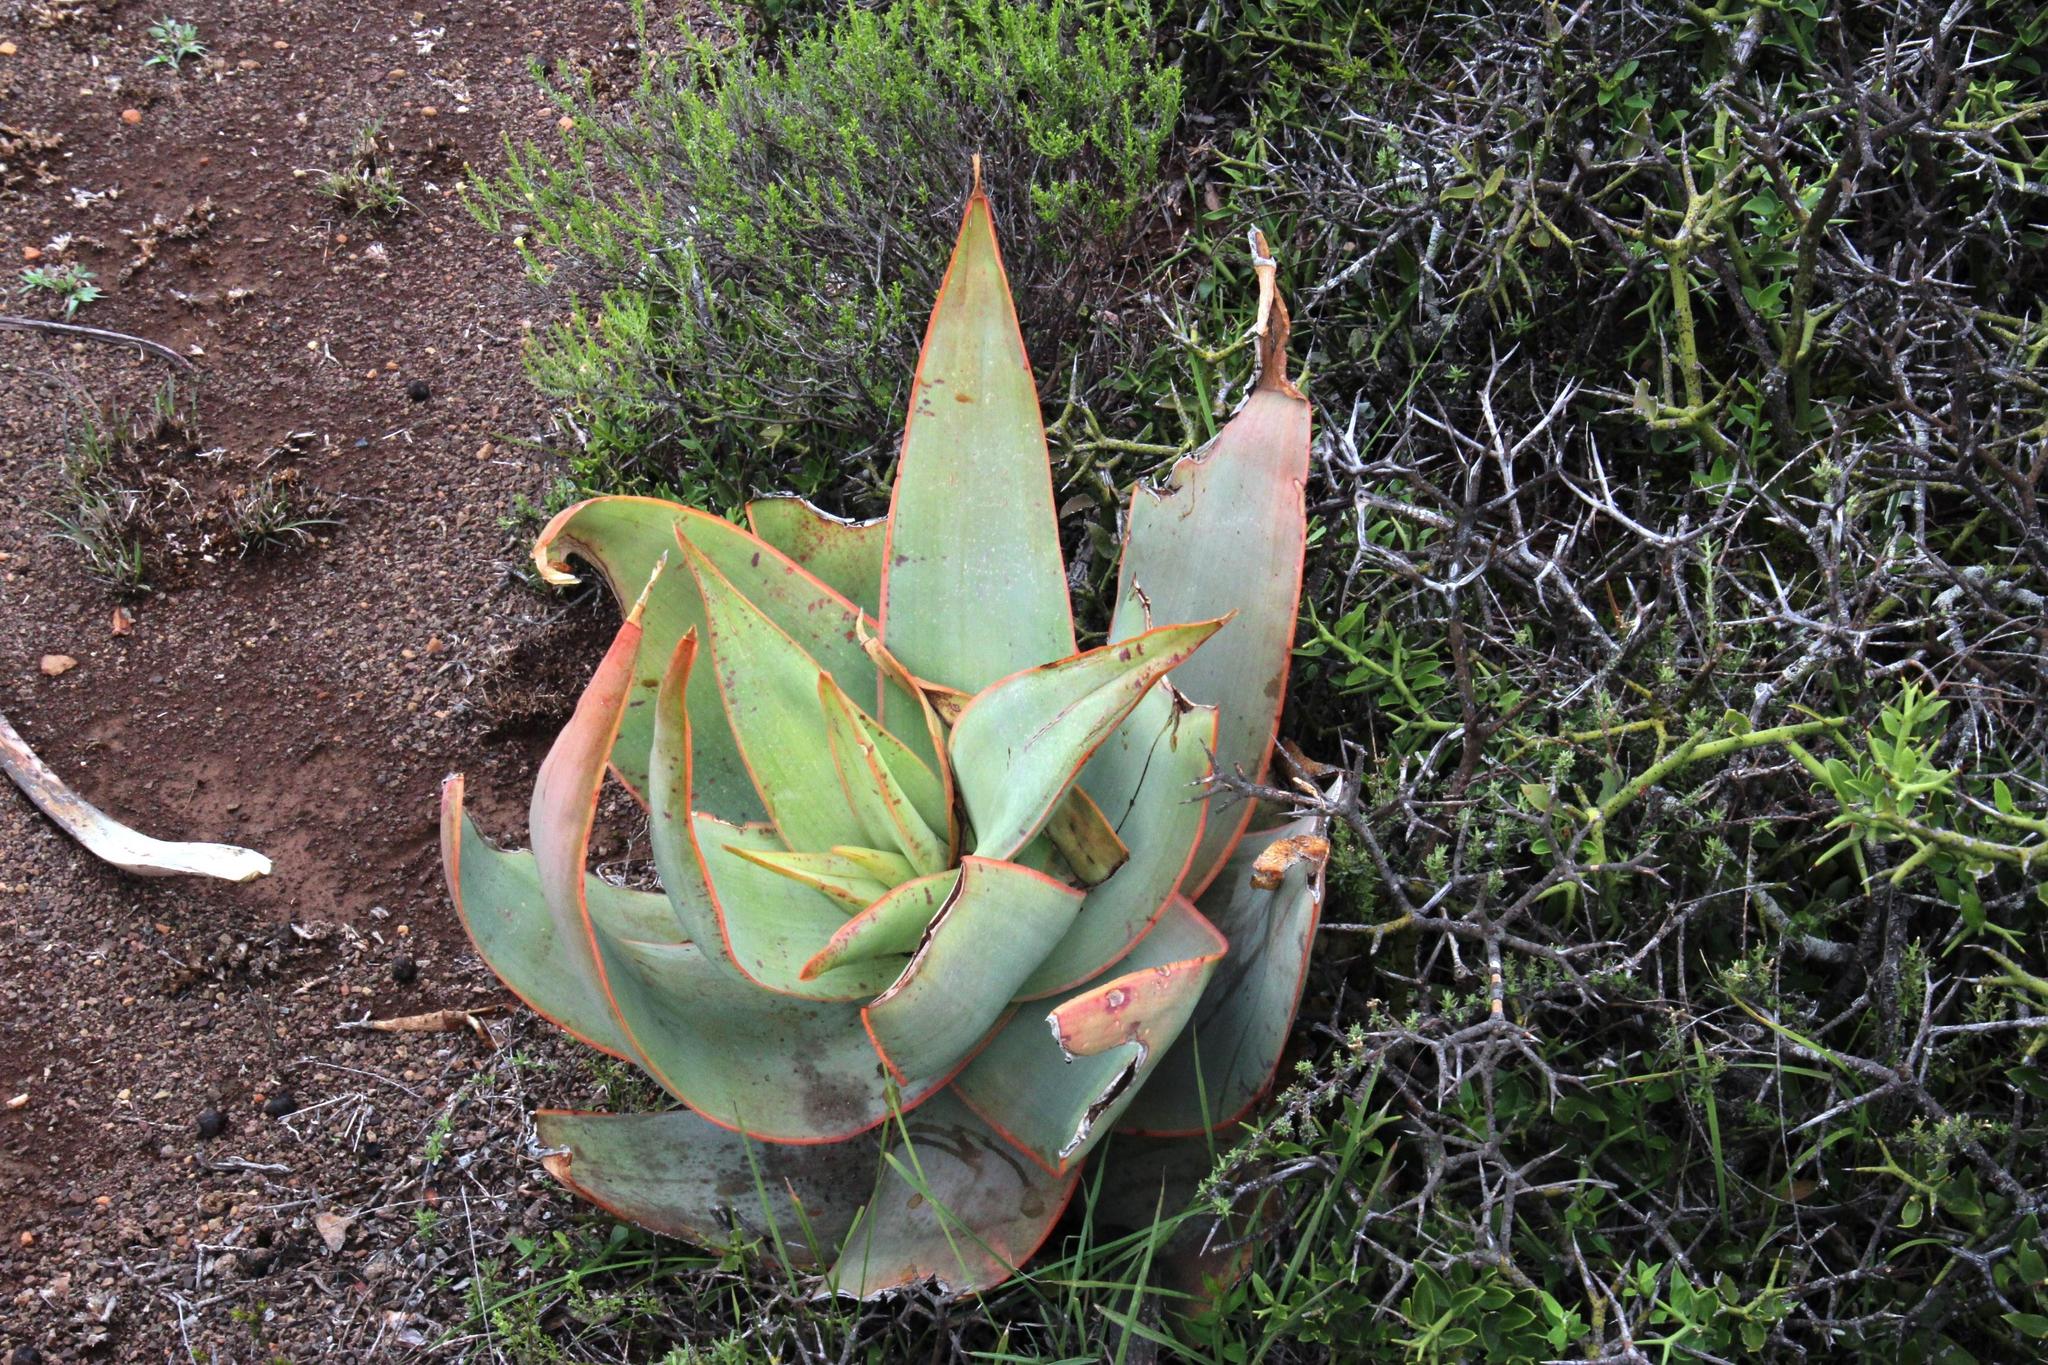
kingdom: Plantae
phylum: Tracheophyta
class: Liliopsida
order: Asparagales
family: Asphodelaceae
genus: Aloe
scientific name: Aloe striata
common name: Coral aloe
